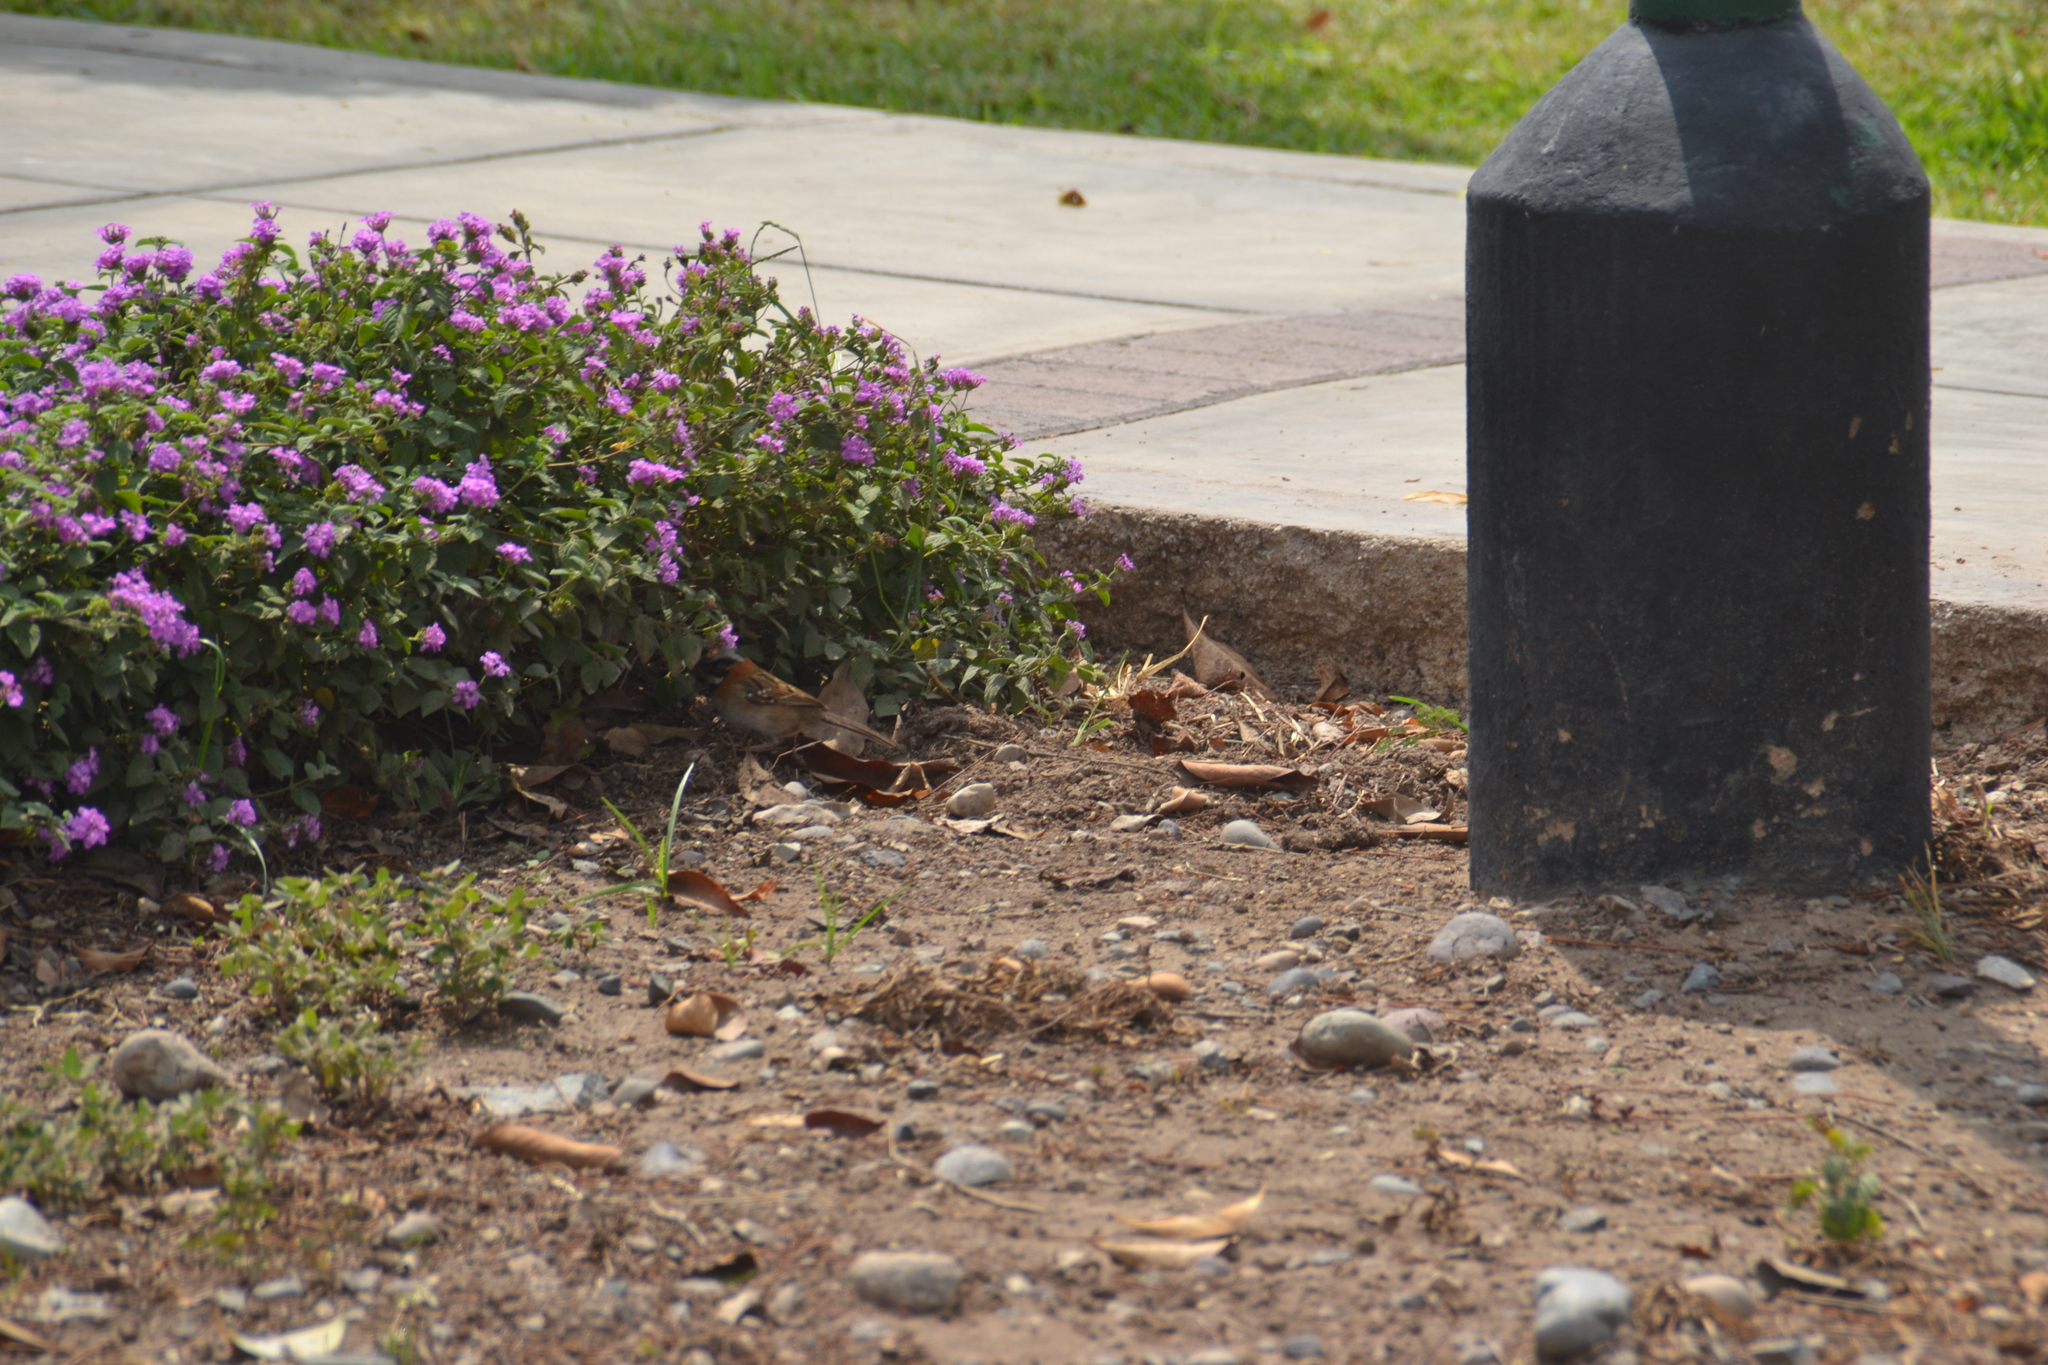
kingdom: Animalia
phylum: Chordata
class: Aves
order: Passeriformes
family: Passerellidae
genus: Zonotrichia
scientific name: Zonotrichia capensis
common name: Rufous-collared sparrow
